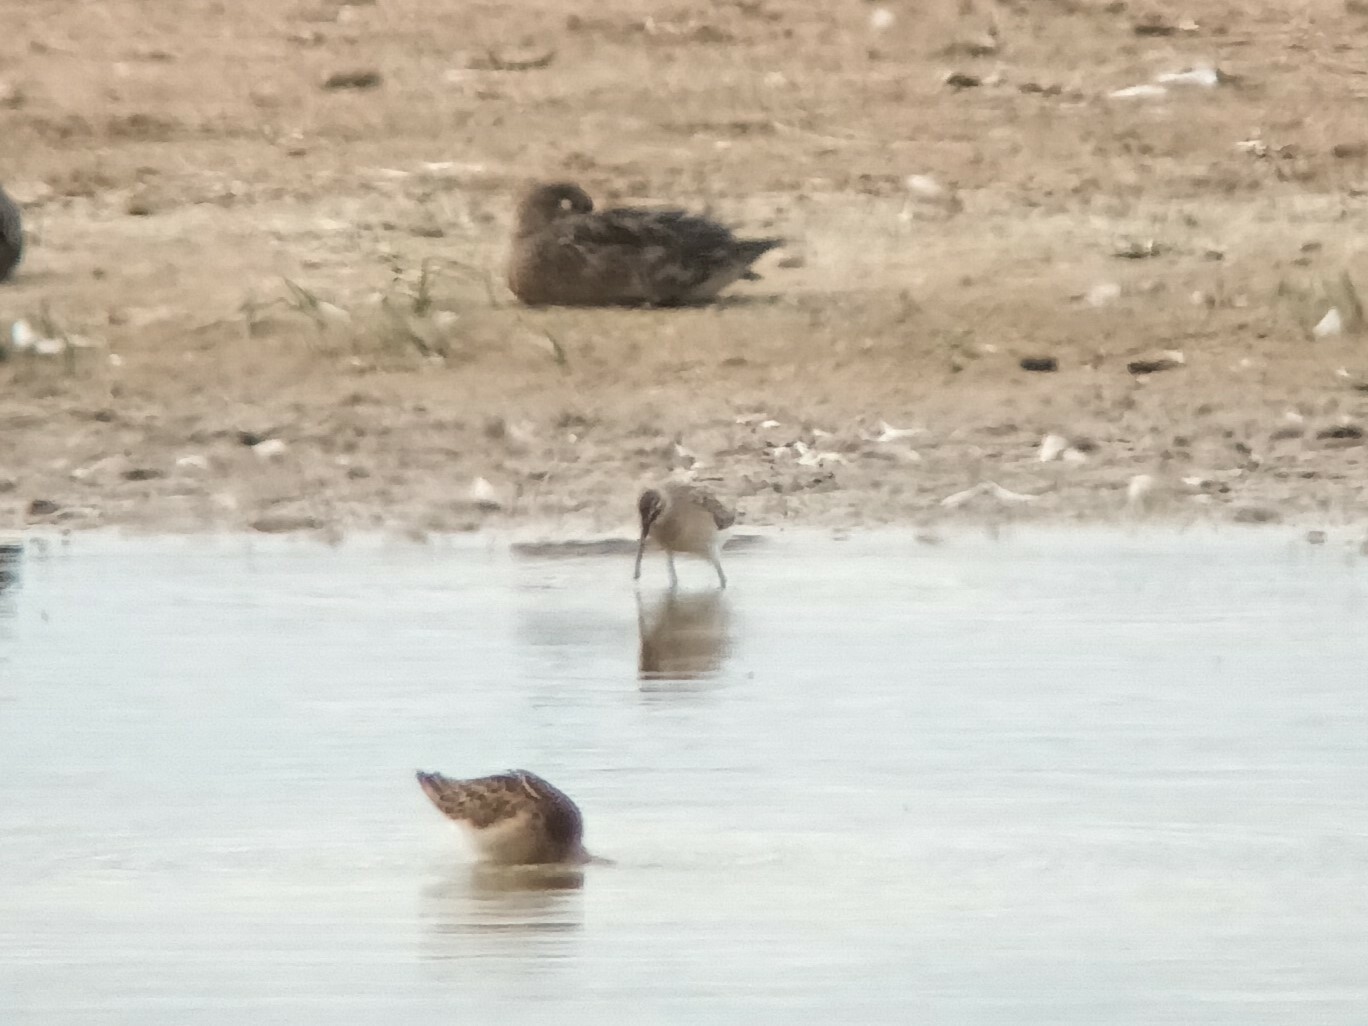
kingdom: Animalia
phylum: Chordata
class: Aves
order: Charadriiformes
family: Scolopacidae
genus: Calidris
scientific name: Calidris ferruginea
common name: Curlew sandpiper
